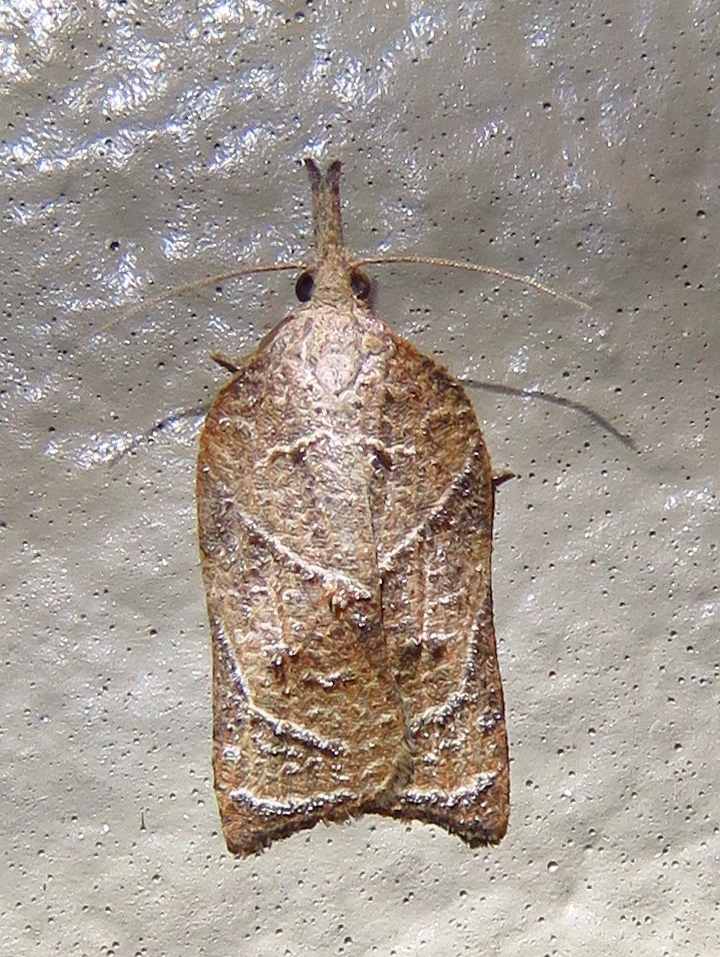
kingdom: Animalia
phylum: Arthropoda
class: Insecta
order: Lepidoptera
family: Tortricidae
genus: Platynota
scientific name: Platynota rostrana
